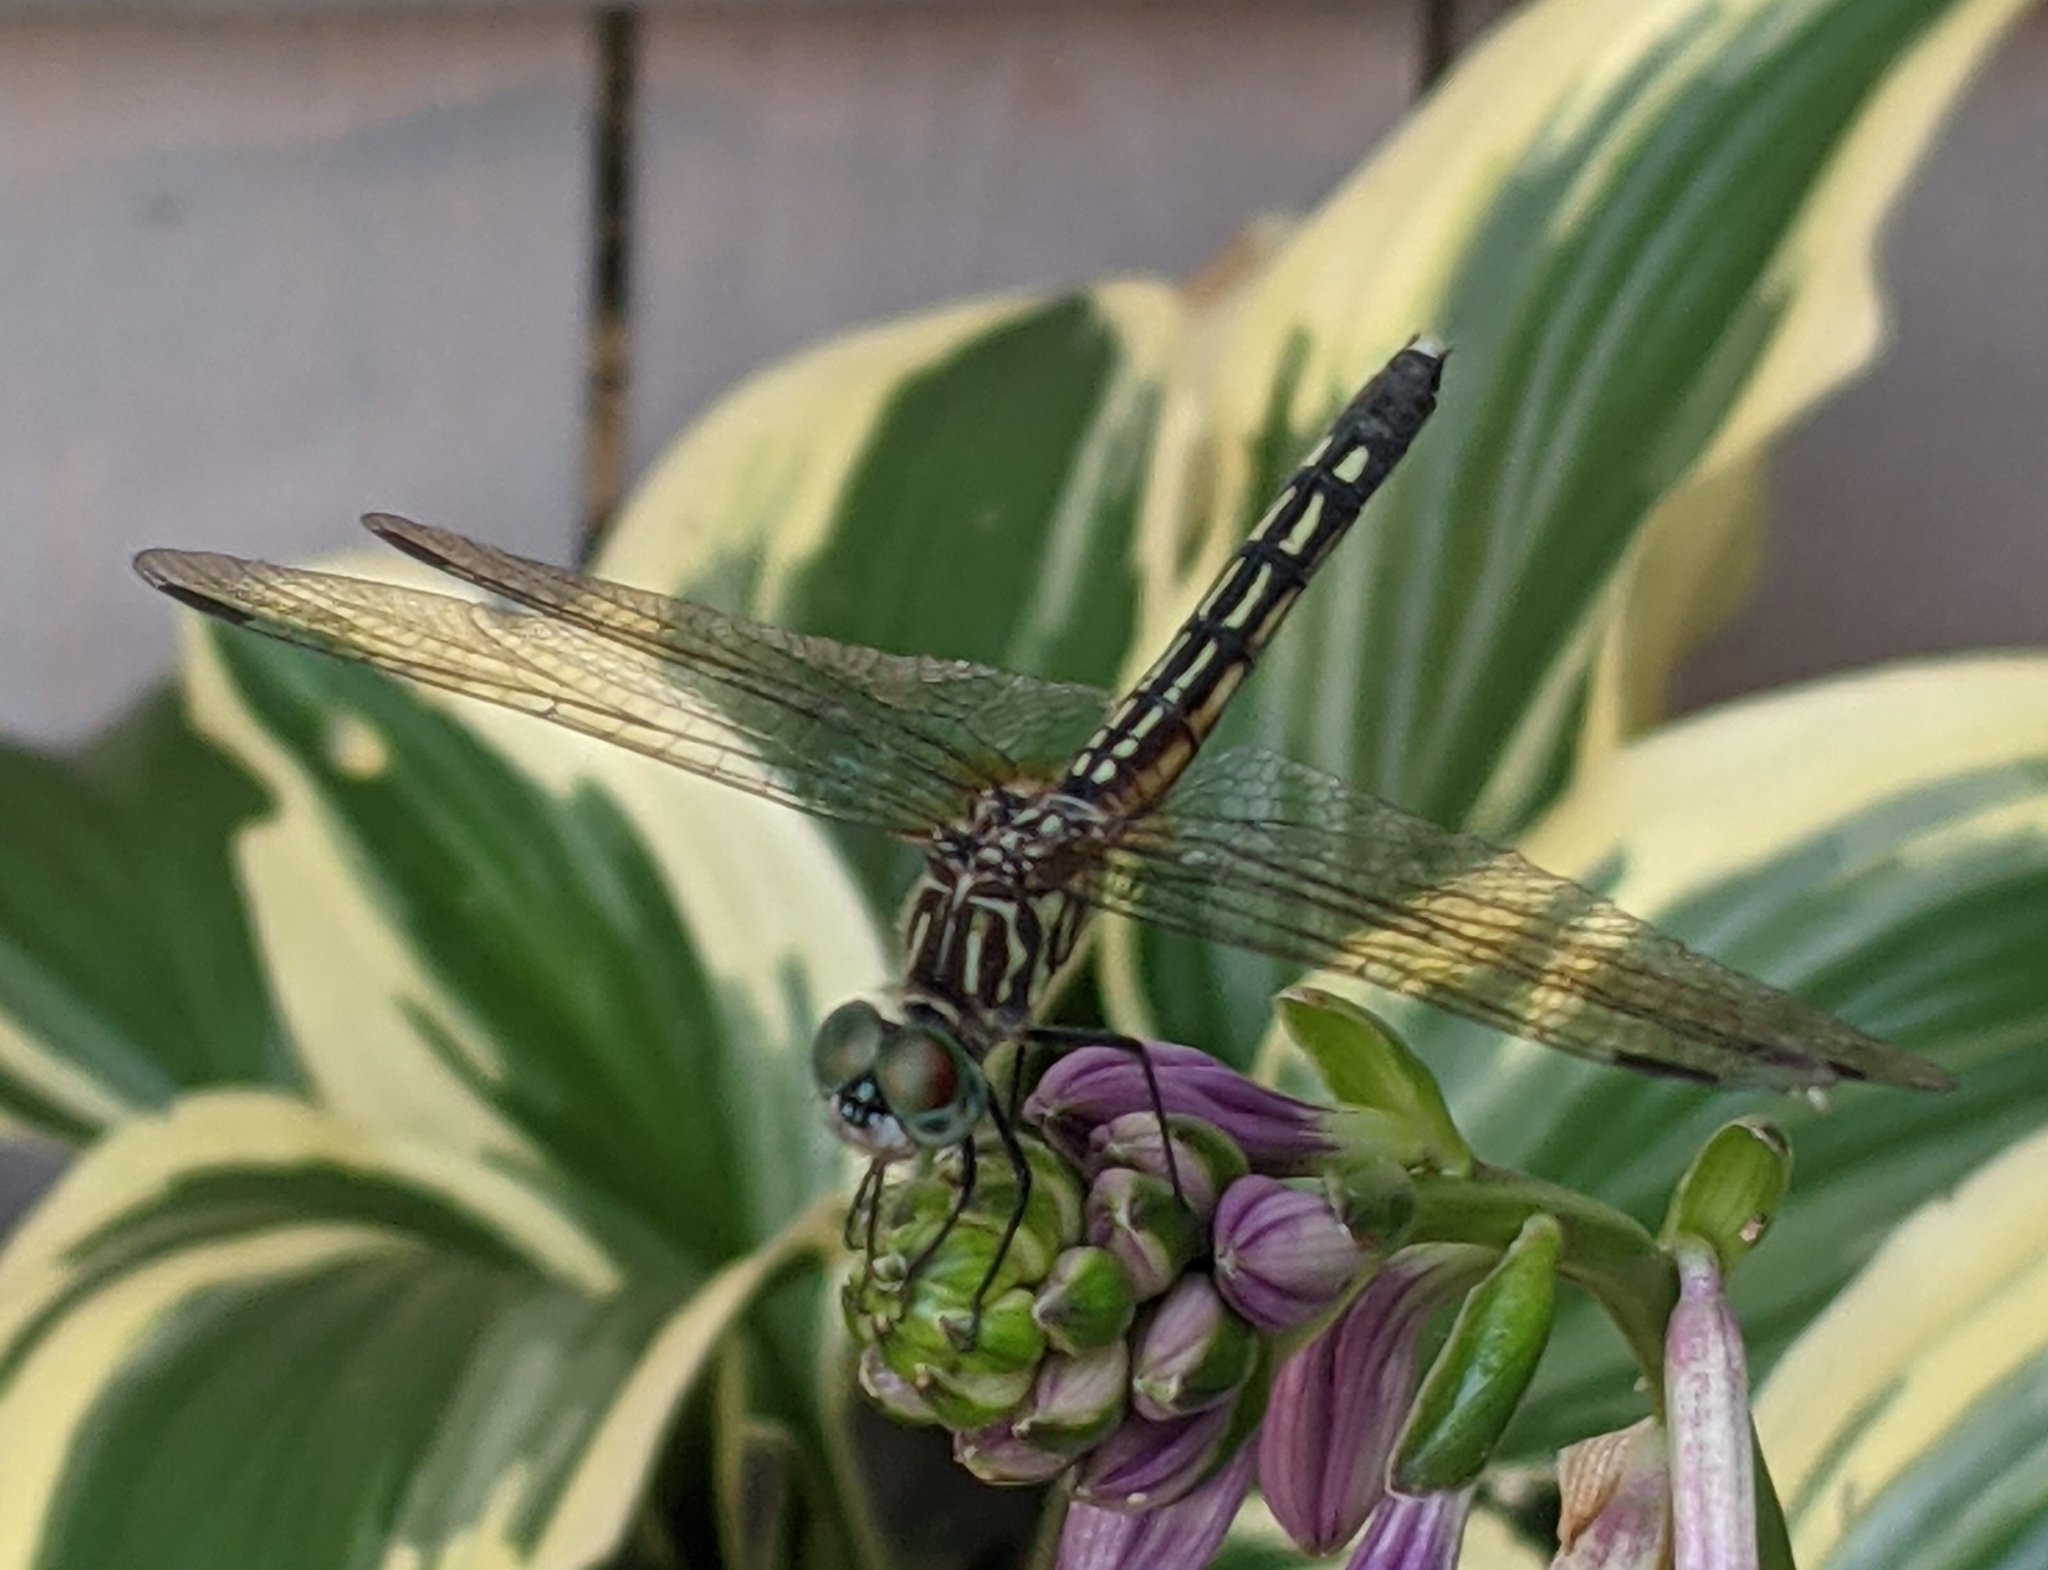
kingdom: Animalia
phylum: Arthropoda
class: Insecta
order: Odonata
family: Libellulidae
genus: Pachydiplax
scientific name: Pachydiplax longipennis
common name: Blue dasher
